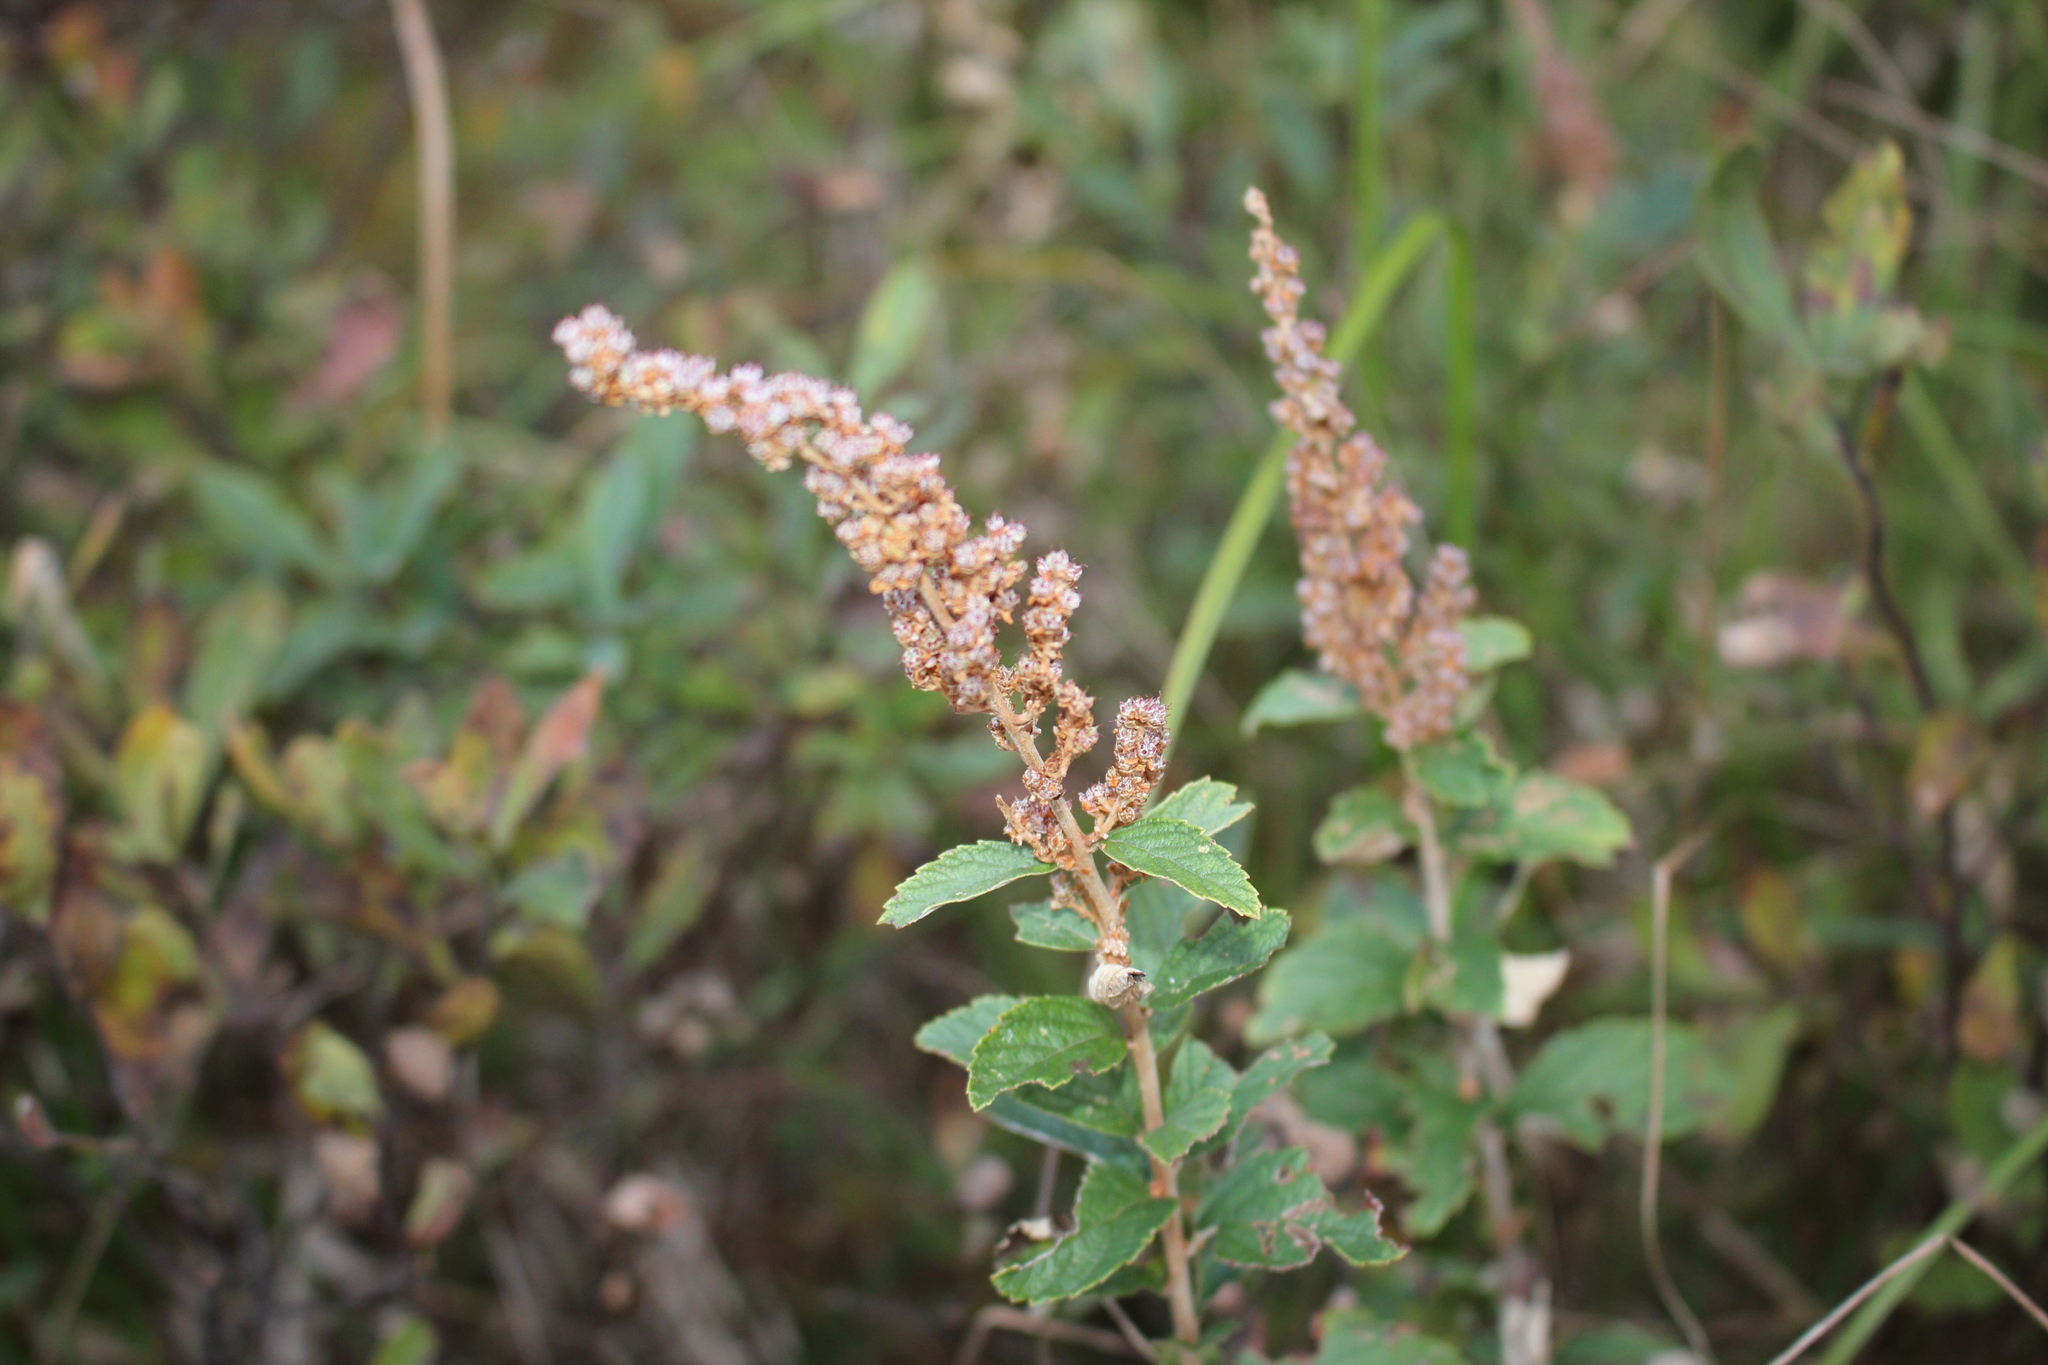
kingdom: Plantae
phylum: Tracheophyta
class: Magnoliopsida
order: Rosales
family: Rosaceae
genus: Spiraea
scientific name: Spiraea tomentosa
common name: Hardhack
